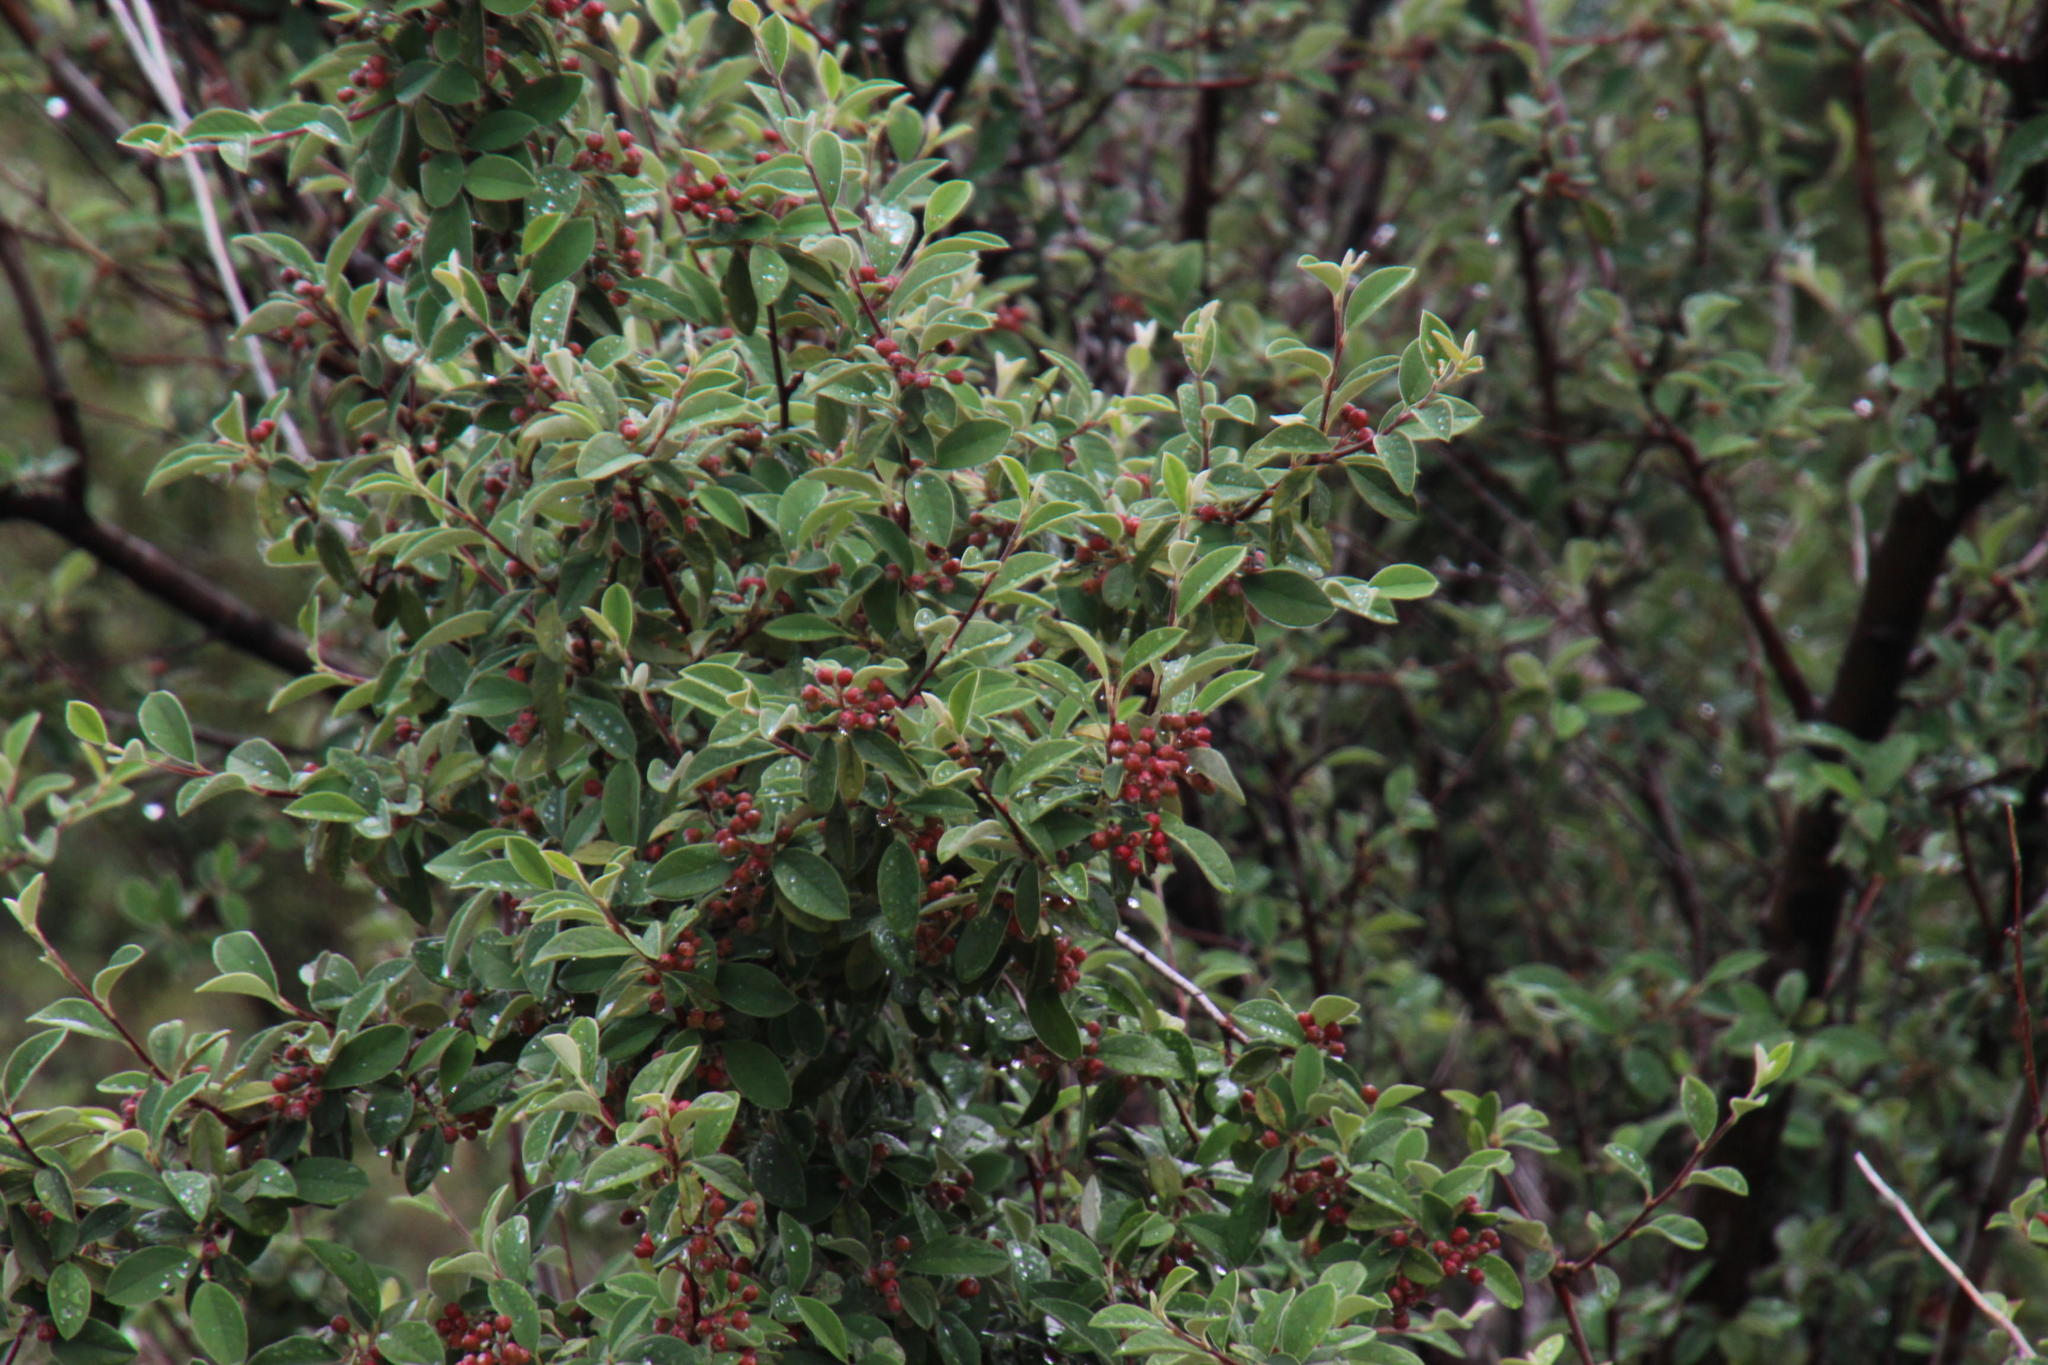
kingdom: Plantae
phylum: Tracheophyta
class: Magnoliopsida
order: Rosales
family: Rosaceae
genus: Cotoneaster
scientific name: Cotoneaster pannosus
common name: Silverleaf cotoneaster
